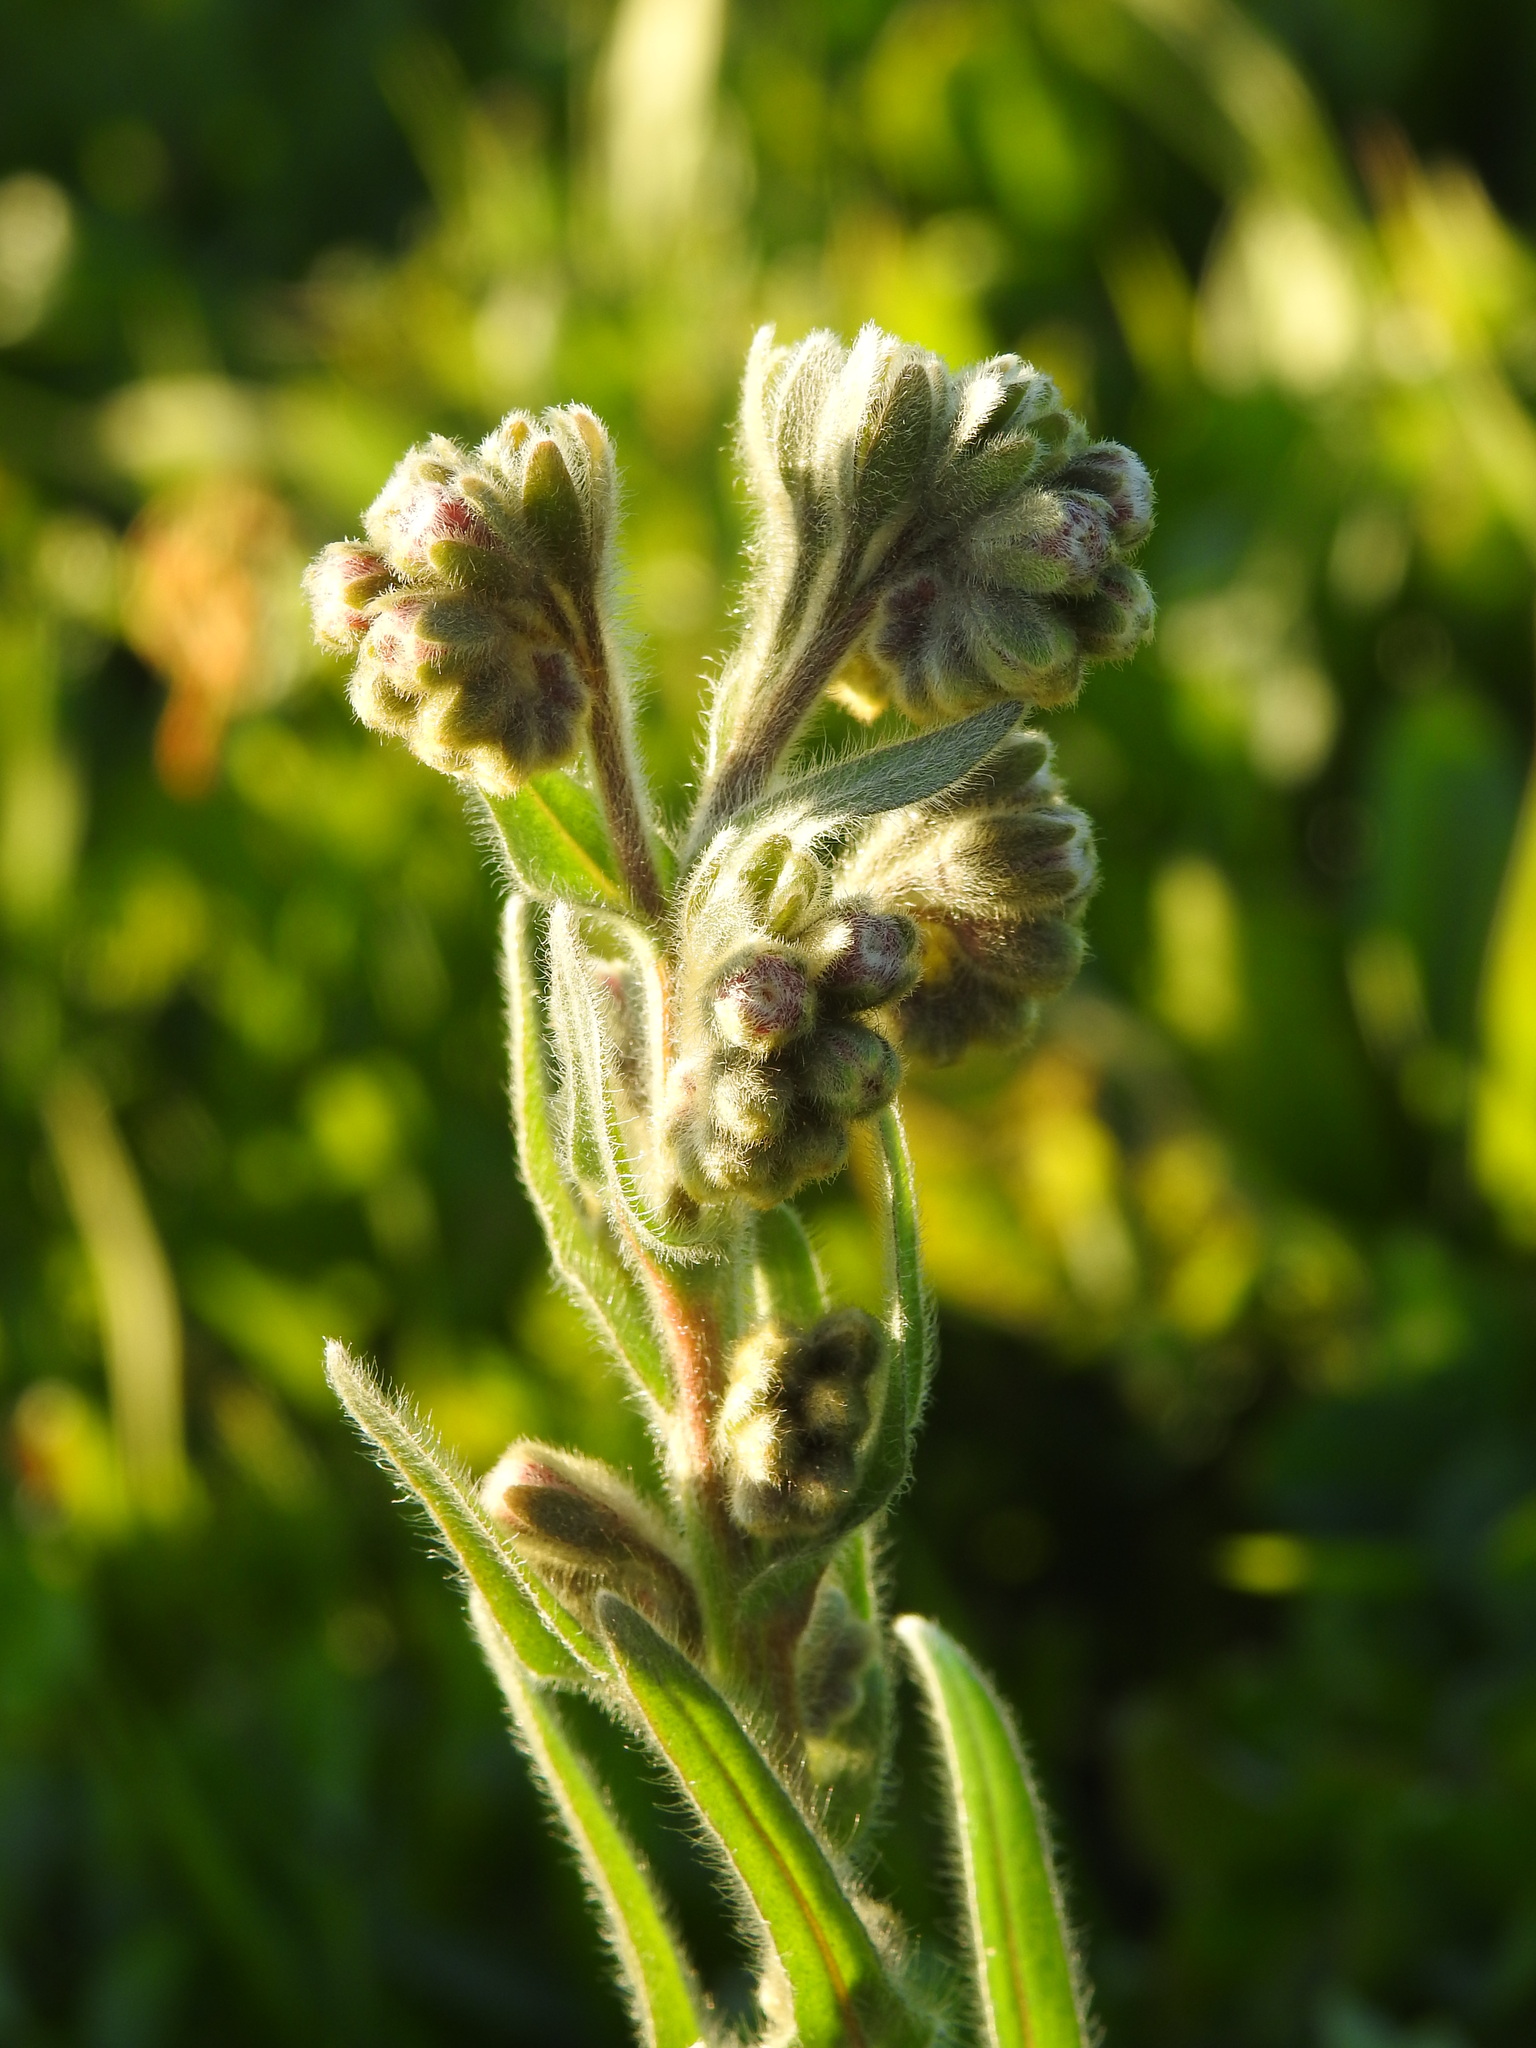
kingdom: Plantae
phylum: Tracheophyta
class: Magnoliopsida
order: Boraginales
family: Boraginaceae
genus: Cynoglossum
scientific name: Cynoglossum clandestinum
